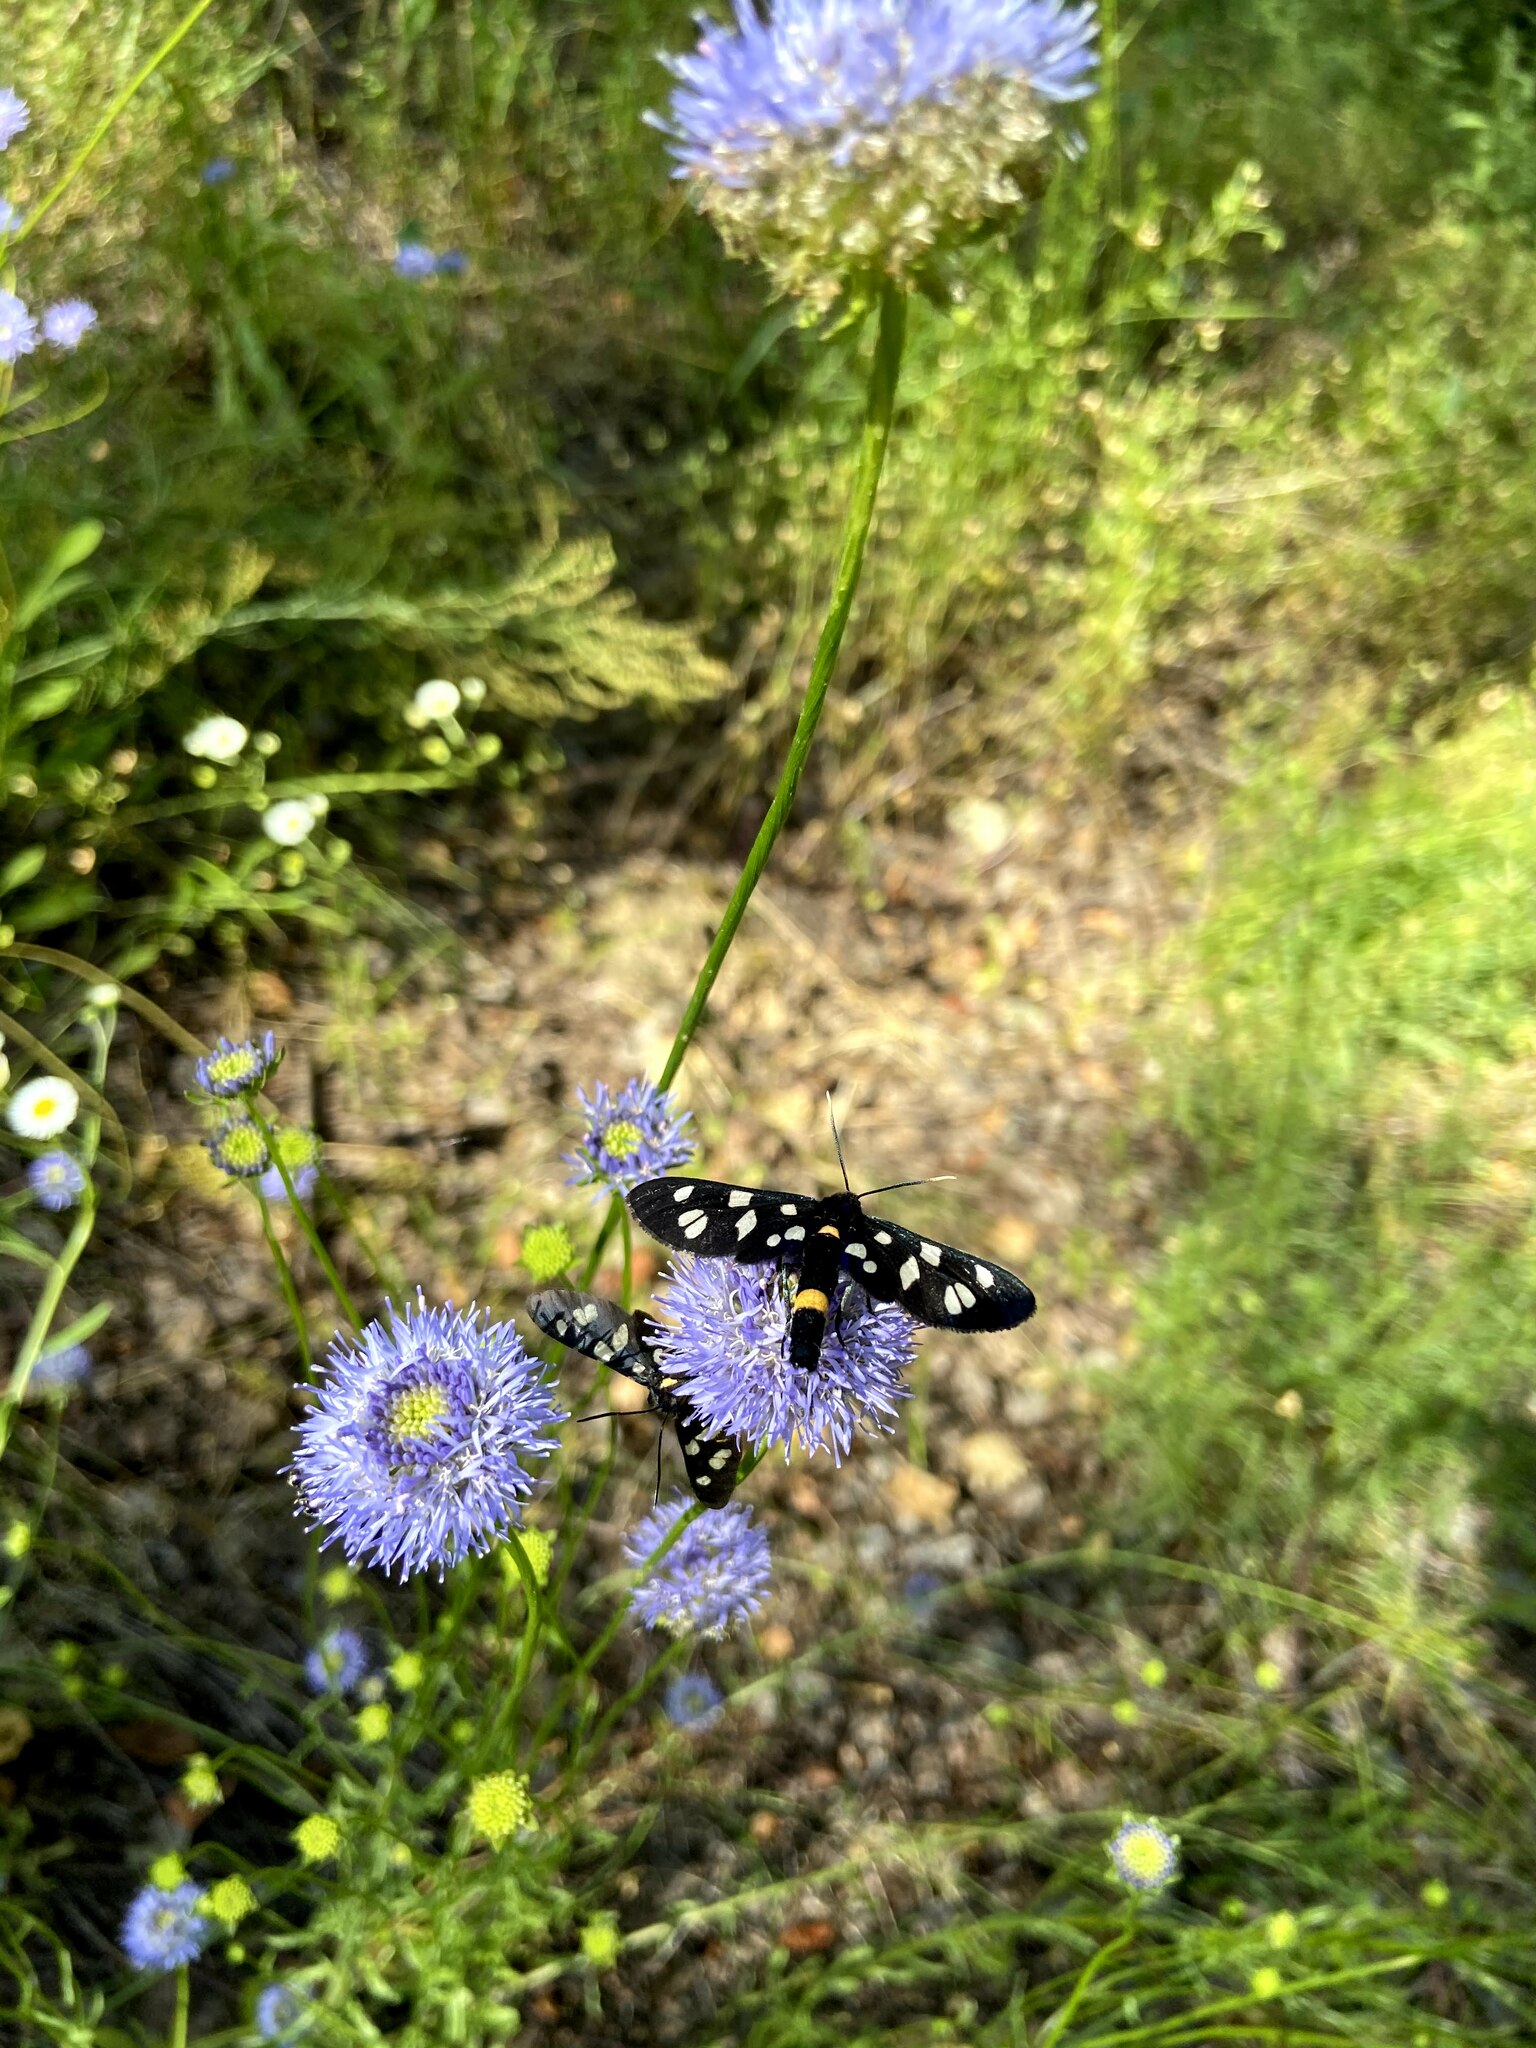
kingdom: Animalia
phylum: Arthropoda
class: Insecta
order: Lepidoptera
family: Erebidae
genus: Amata
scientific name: Amata nigricornis
